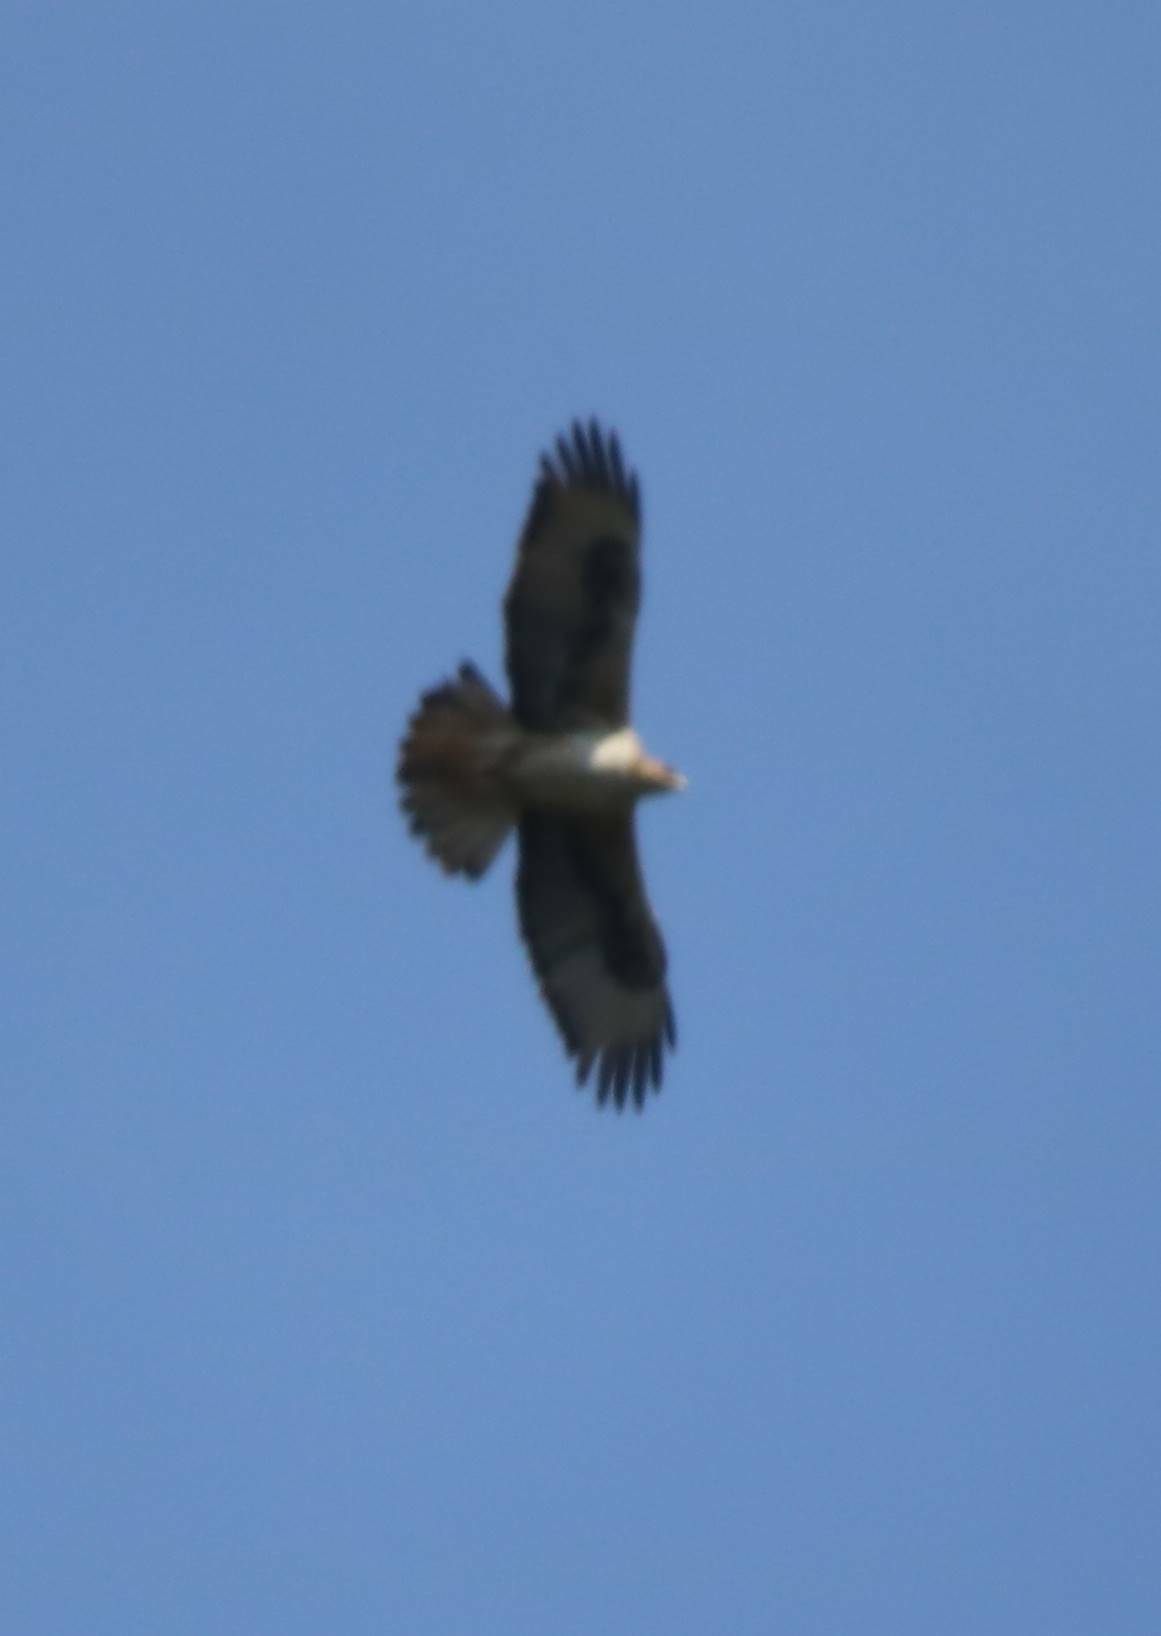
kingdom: Animalia
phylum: Chordata
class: Aves
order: Accipitriformes
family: Accipitridae
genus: Aquila
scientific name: Aquila fasciata
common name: Bonelli's eagle
